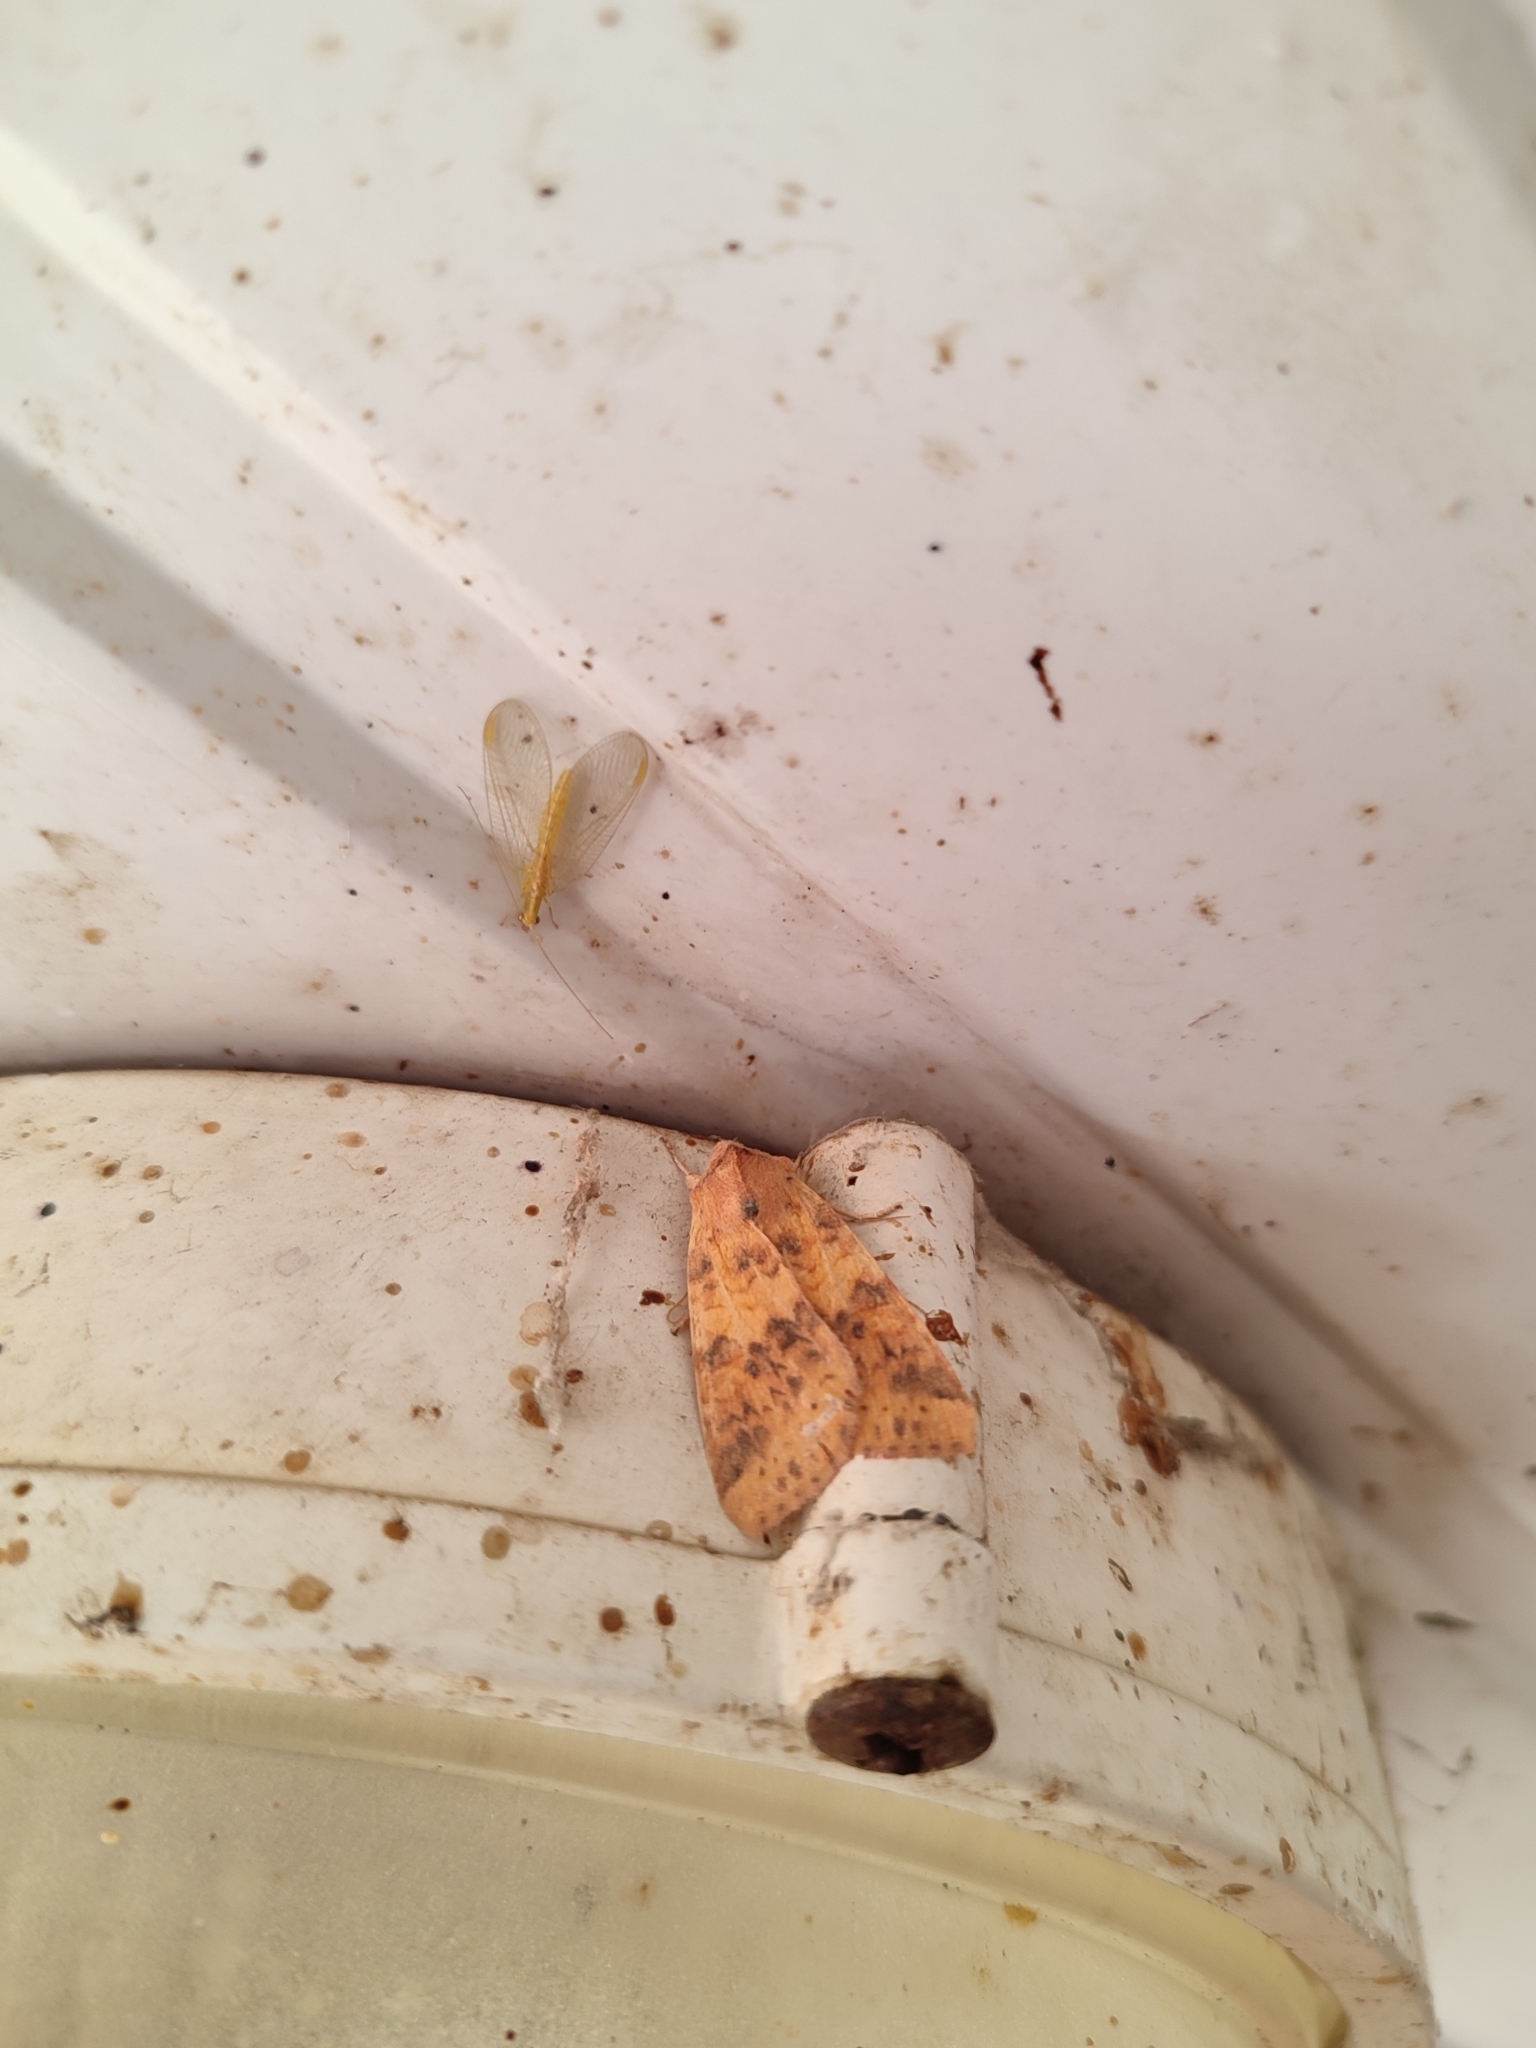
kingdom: Animalia
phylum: Arthropoda
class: Insecta
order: Lepidoptera
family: Noctuidae
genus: Xanthia
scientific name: Xanthia gilvago
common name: Dusky-lemon sallow
